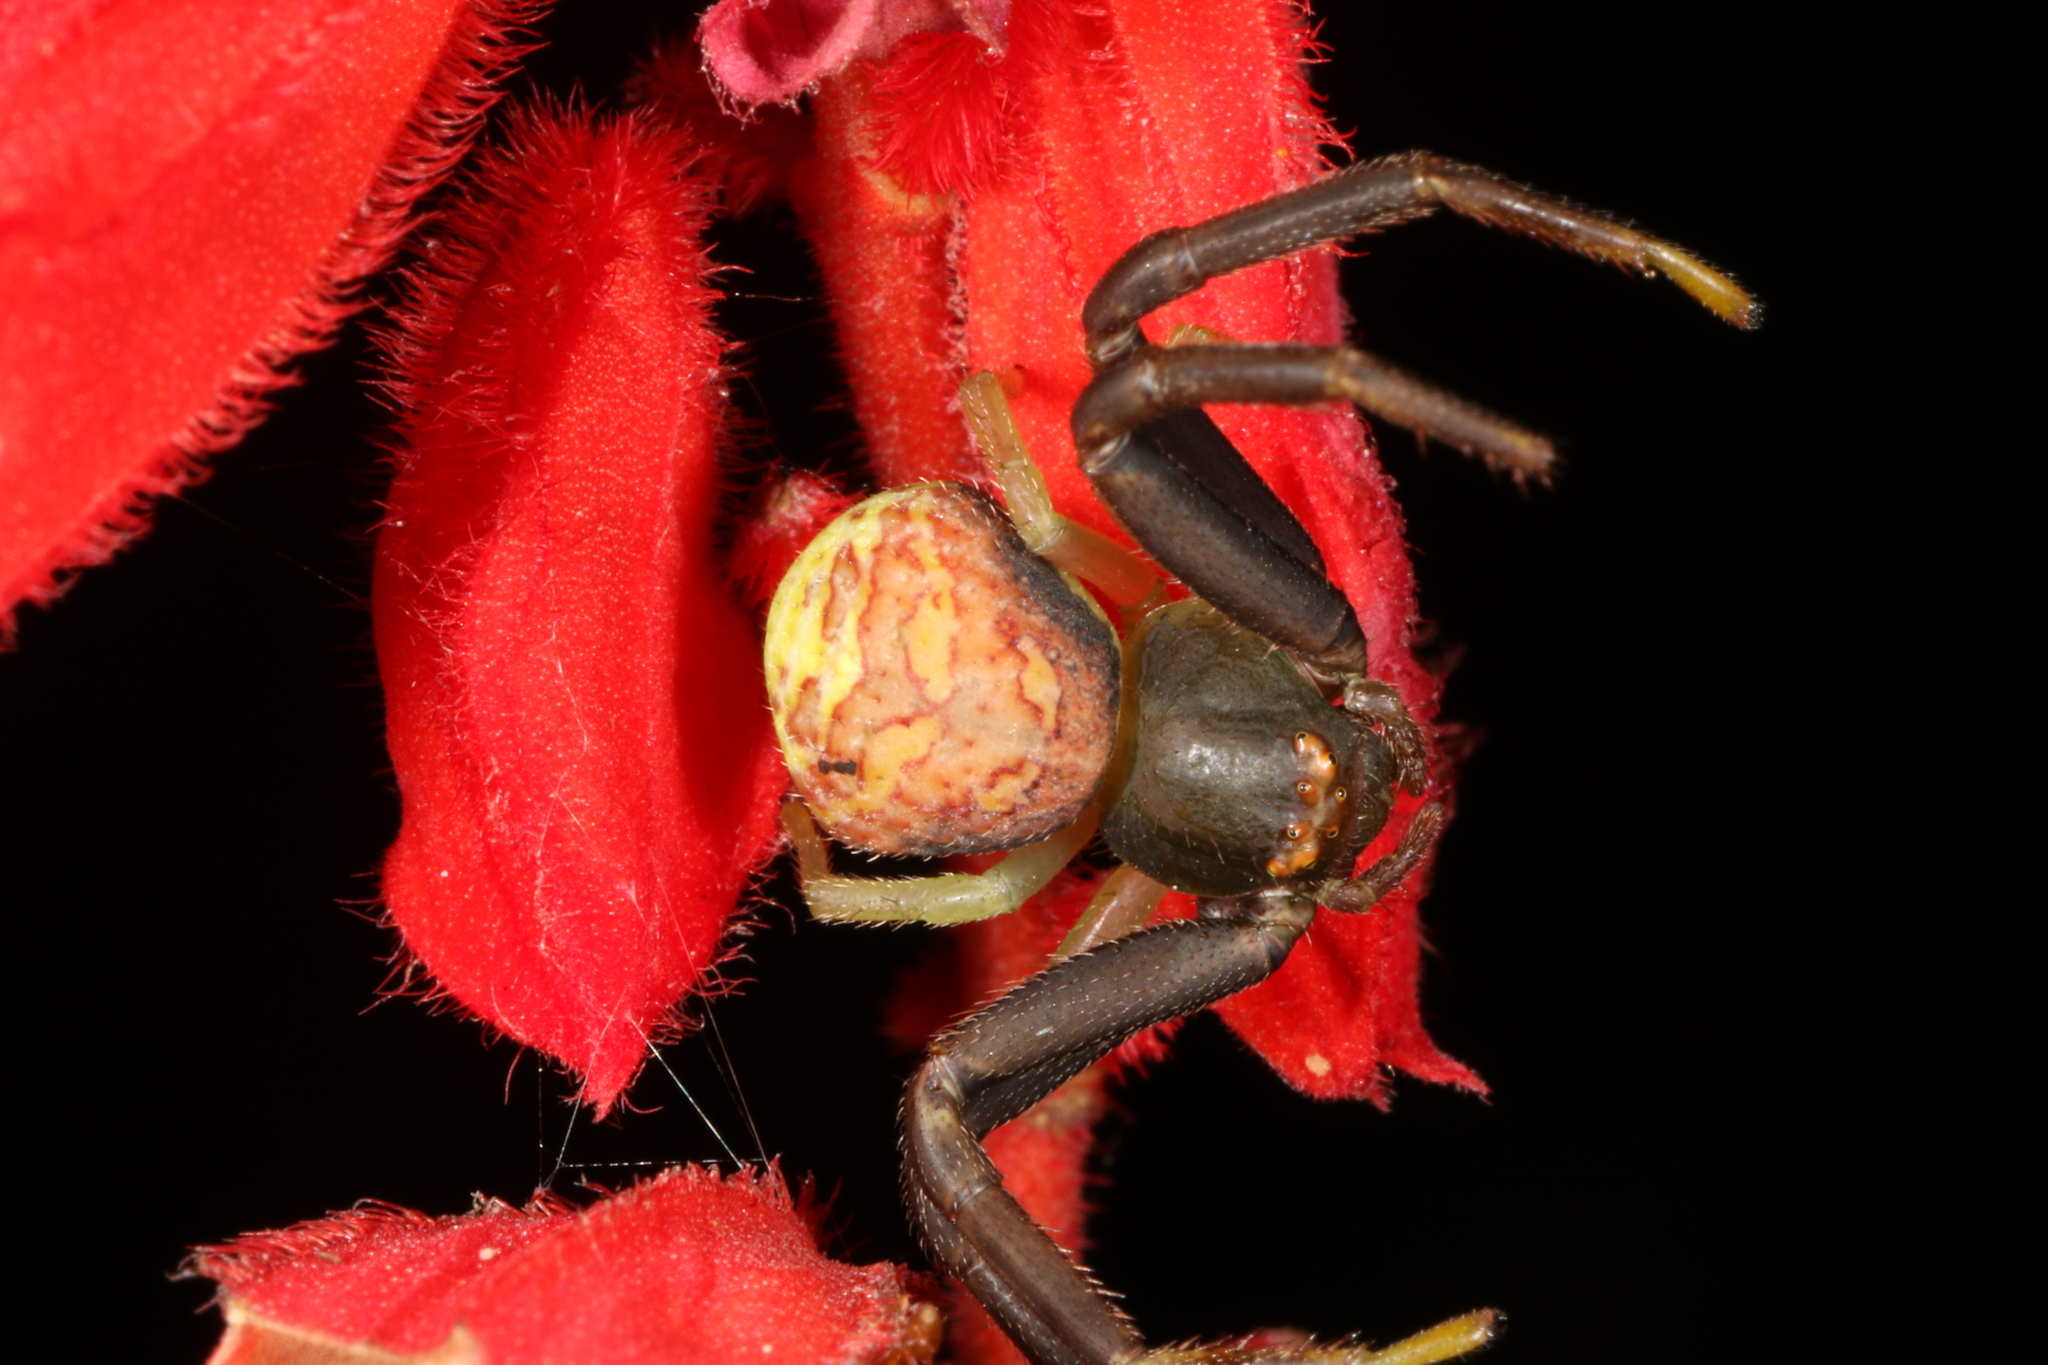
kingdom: Animalia
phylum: Arthropoda
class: Arachnida
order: Araneae
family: Thomisidae
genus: Runcinioides
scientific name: Runcinioides litteratus
